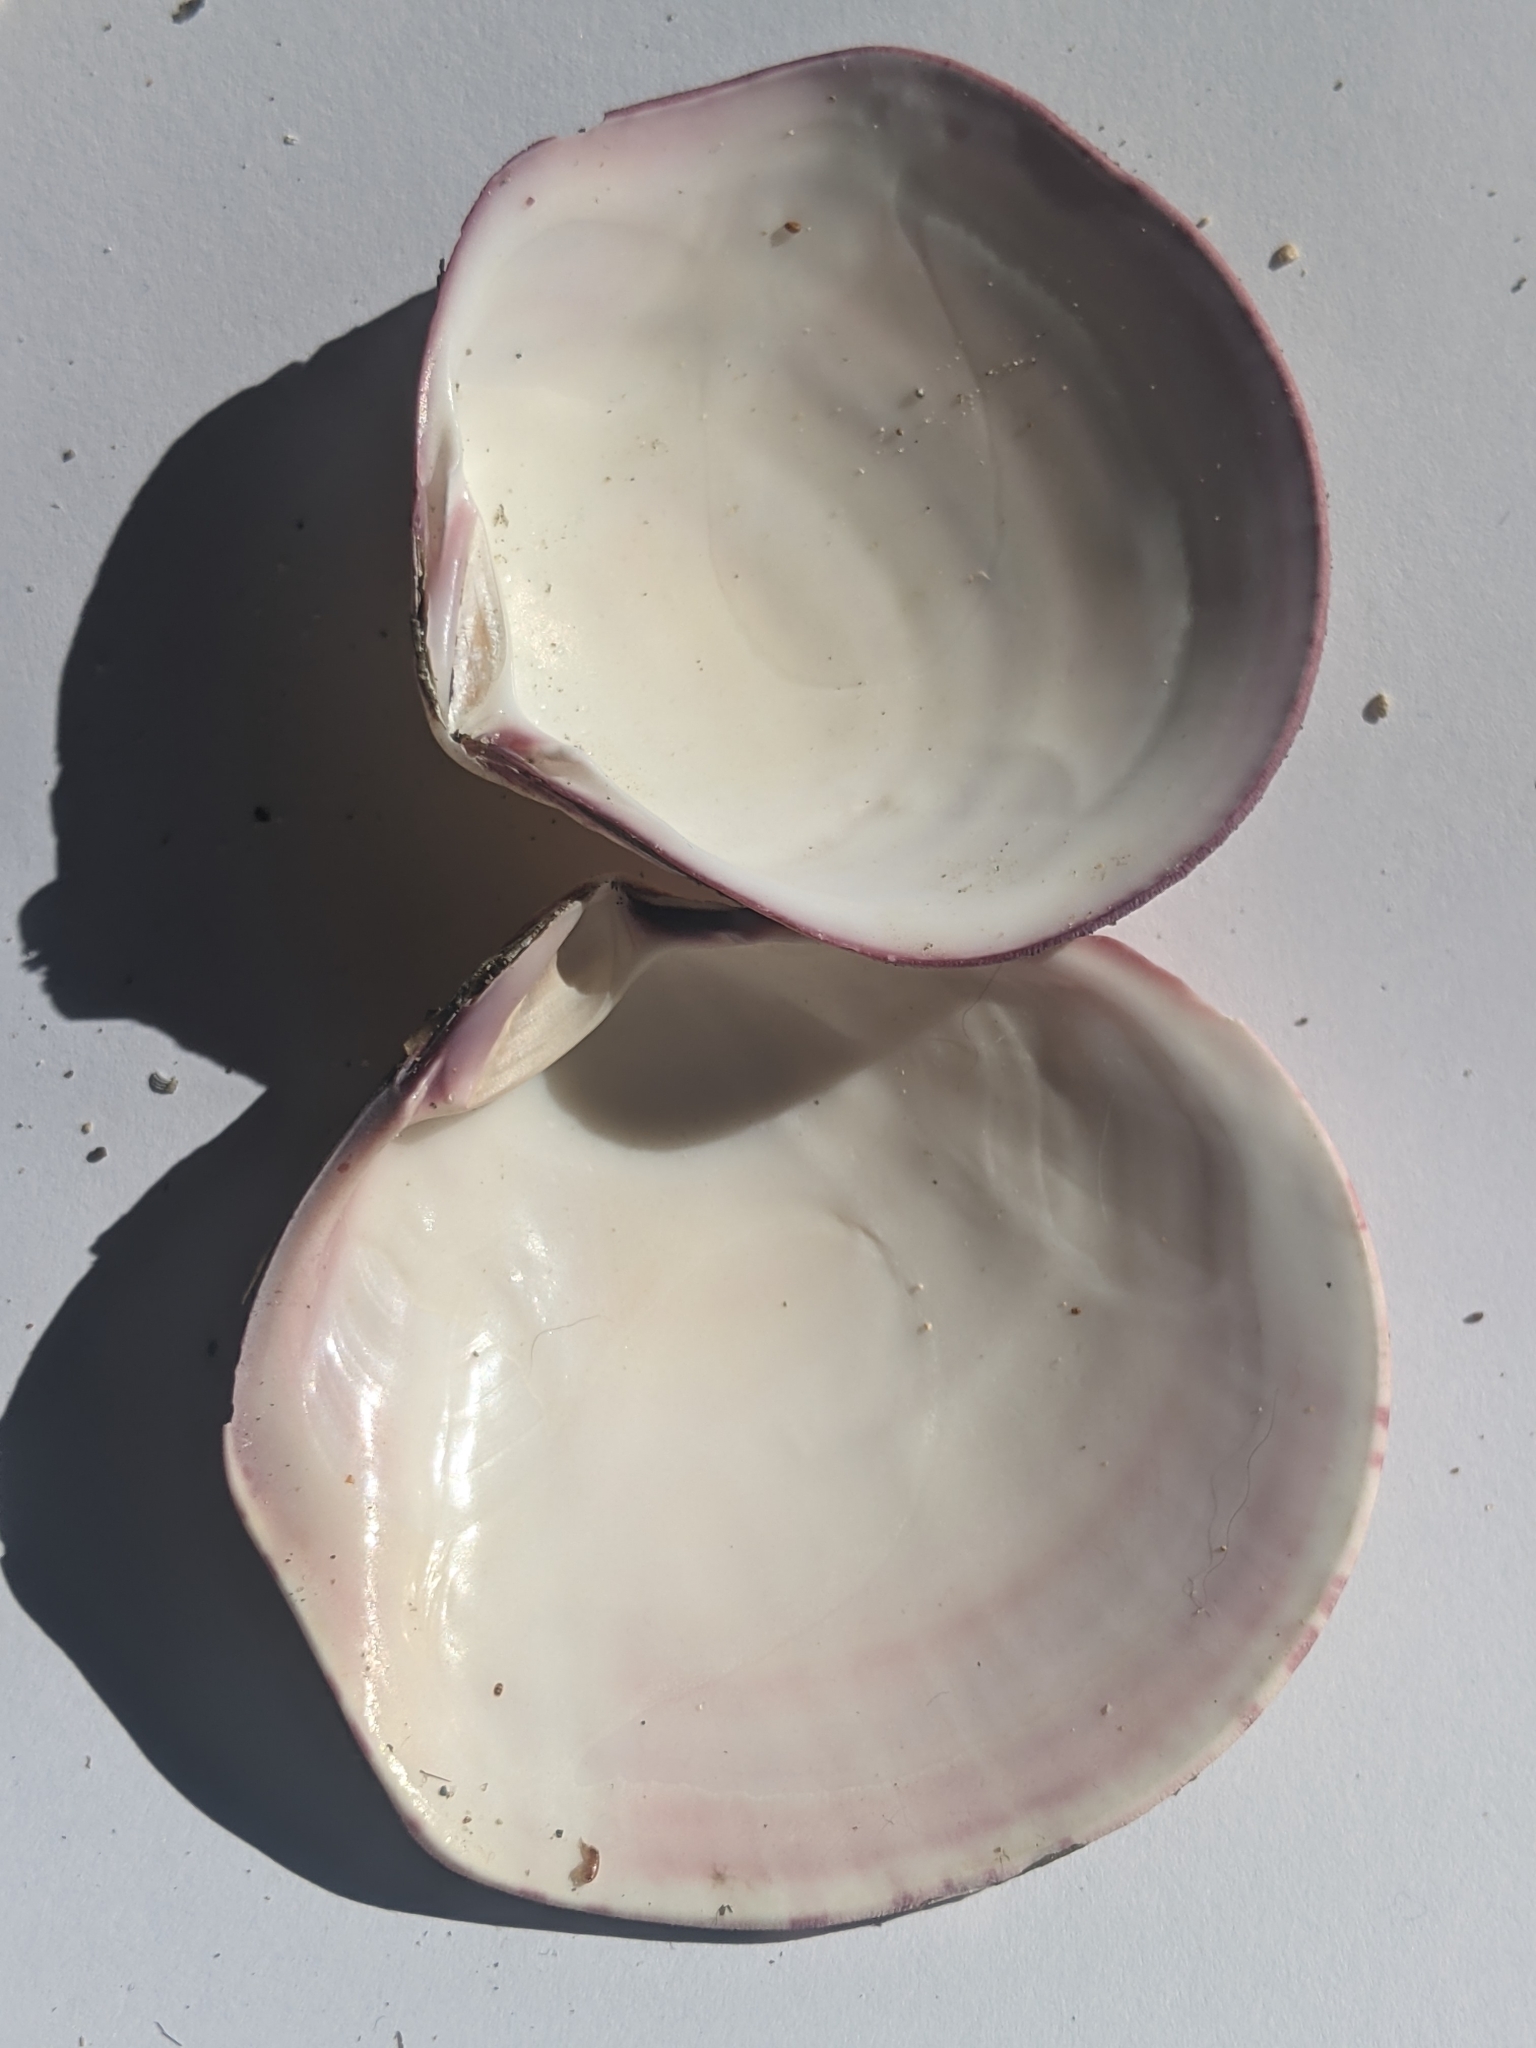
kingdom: Animalia
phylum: Mollusca
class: Bivalvia
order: Cardiida
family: Semelidae
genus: Semele
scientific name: Semele decisa
